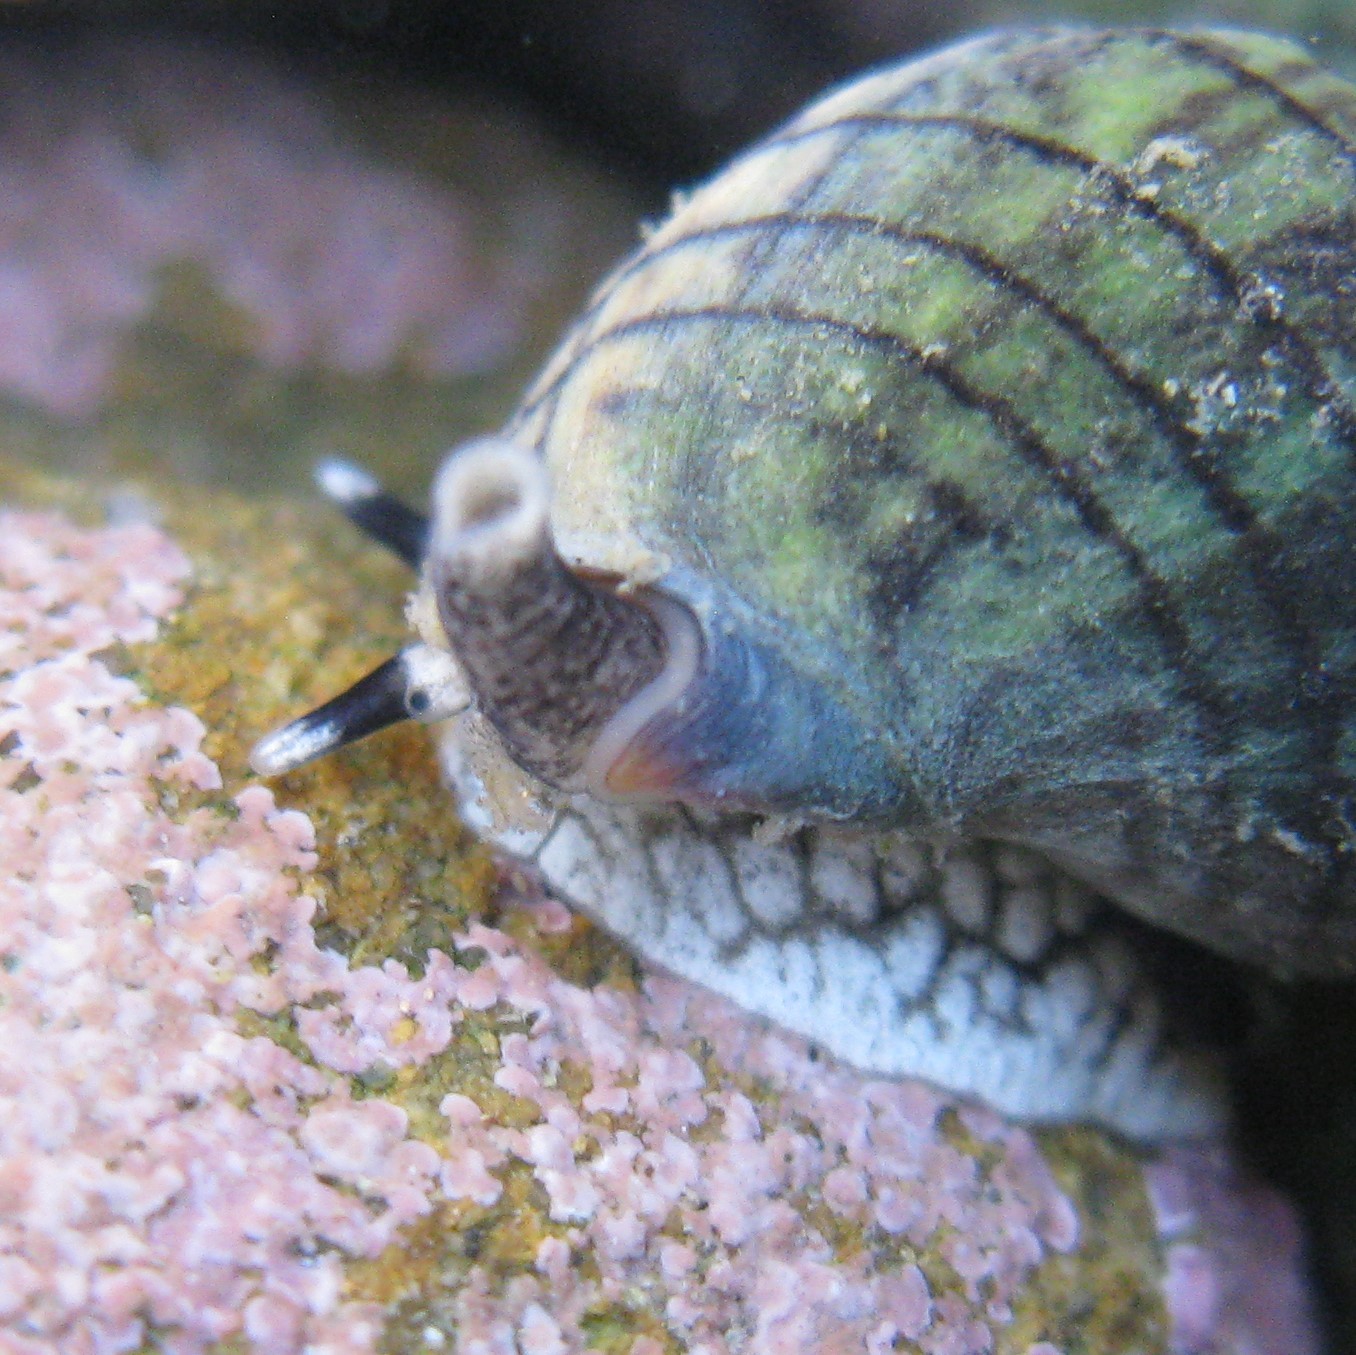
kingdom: Animalia
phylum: Mollusca
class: Gastropoda
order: Neogastropoda
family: Cominellidae
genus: Cominella
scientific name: Cominella virgata
